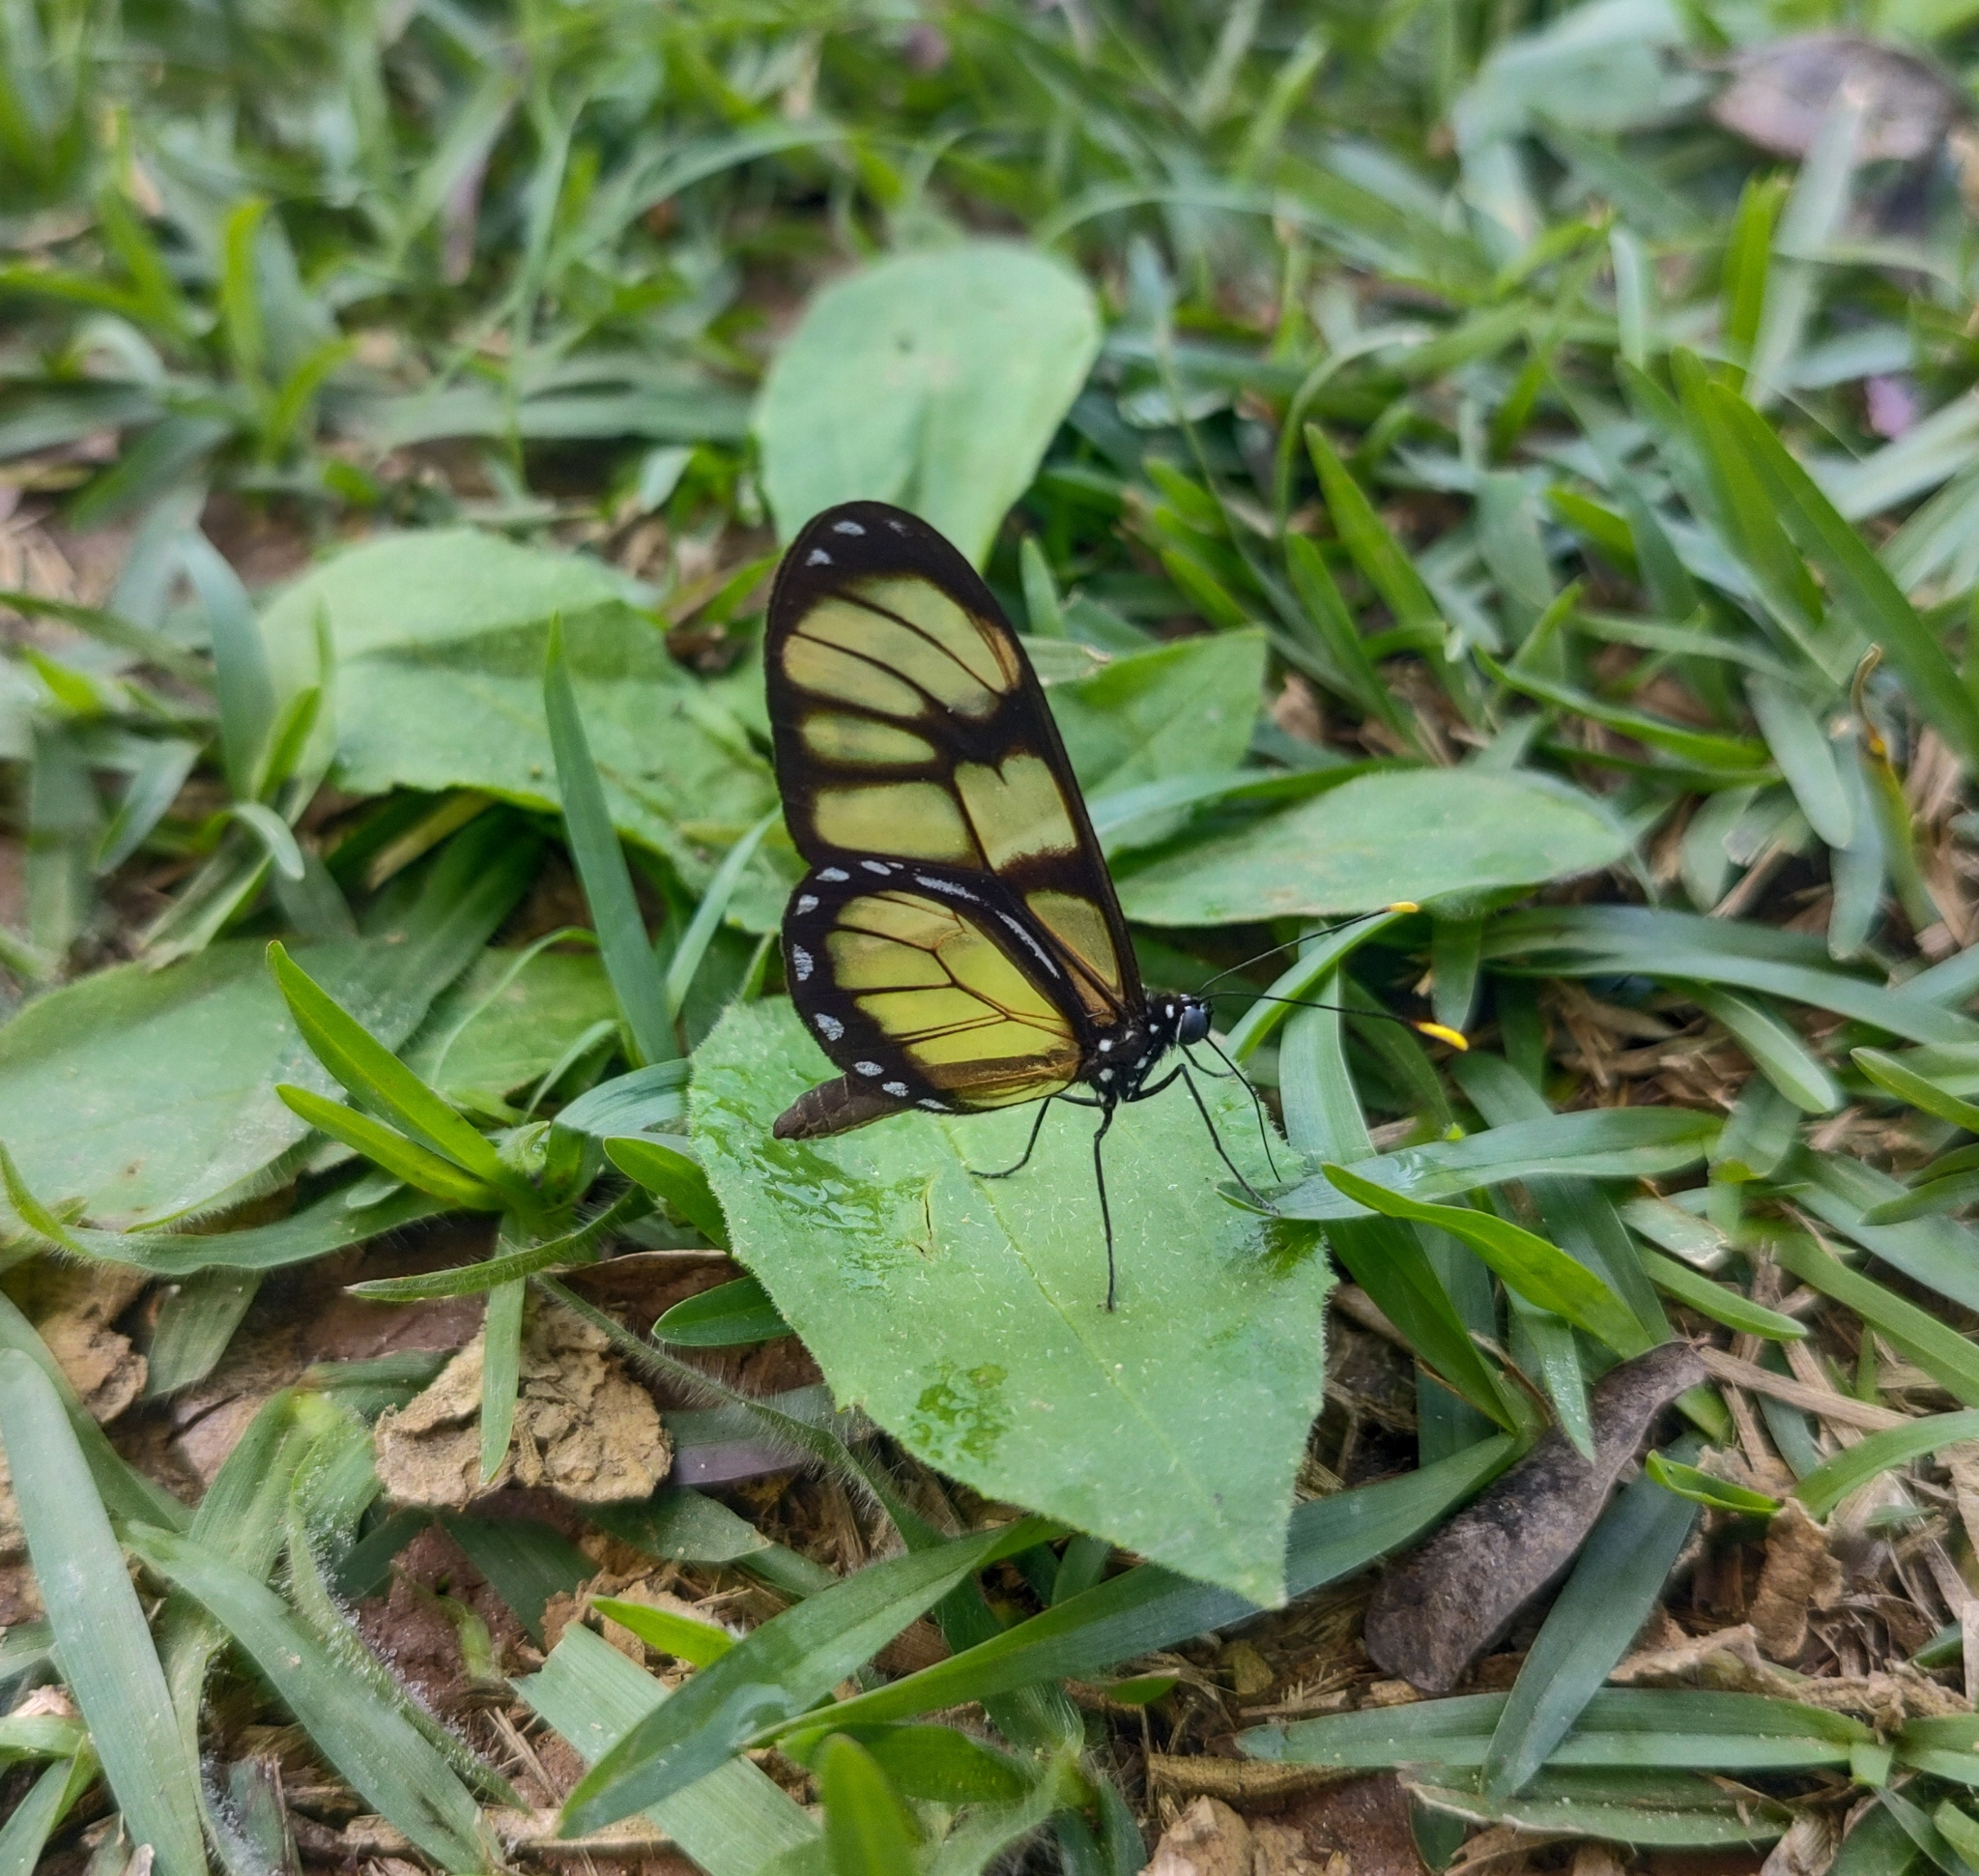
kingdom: Animalia
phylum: Arthropoda
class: Insecta
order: Lepidoptera
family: Nymphalidae
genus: Dircenna
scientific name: Dircenna dero
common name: Dero clearwing
